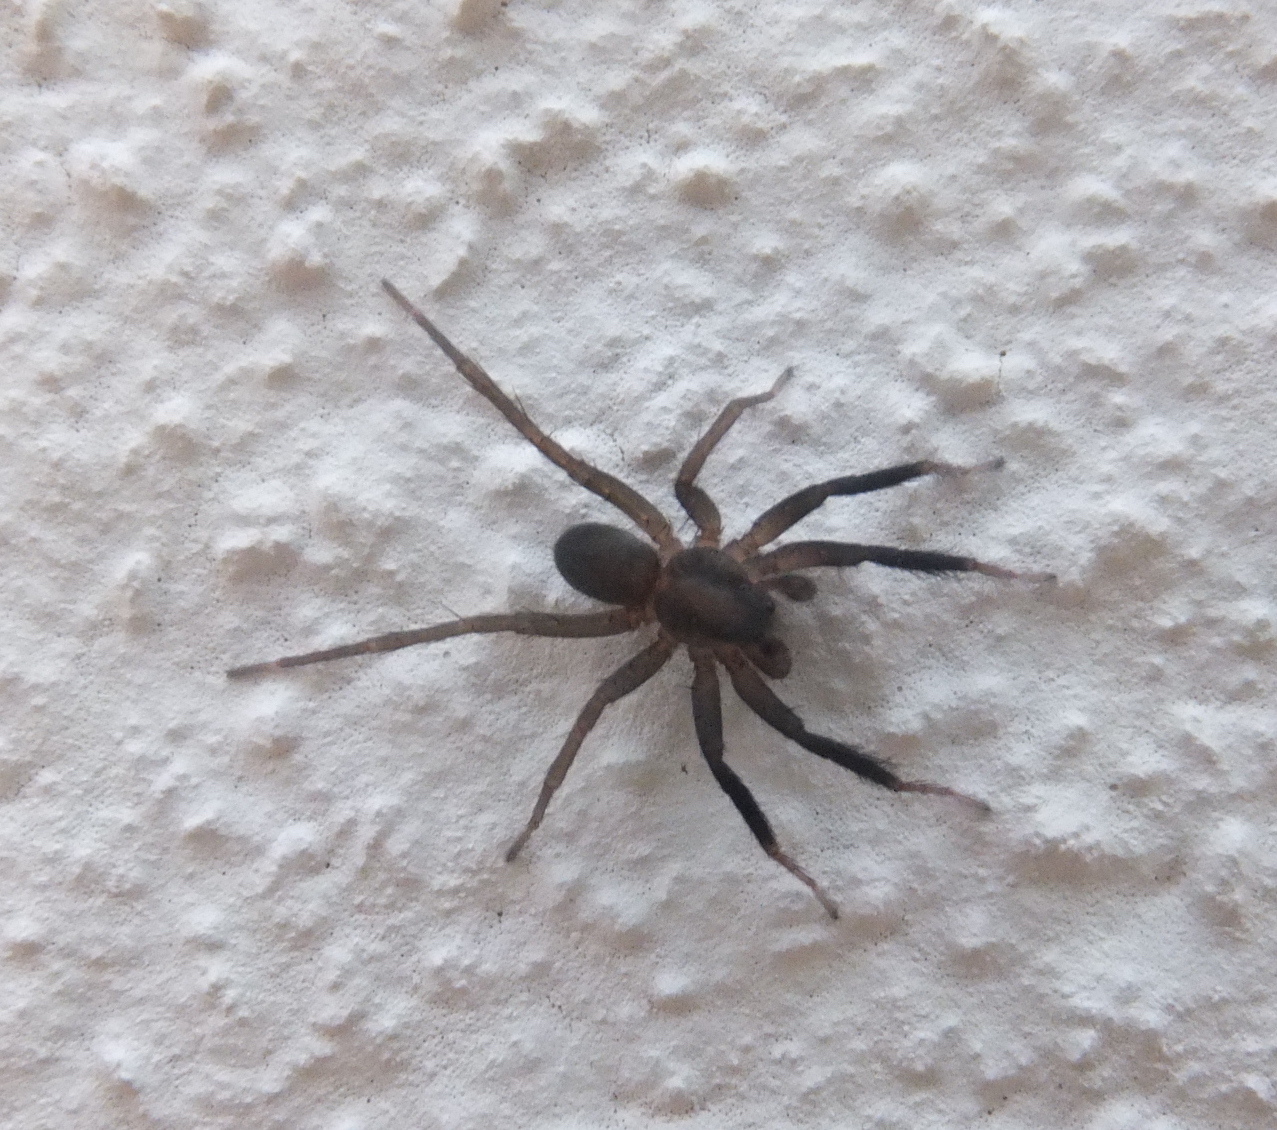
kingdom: Animalia
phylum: Arthropoda
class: Arachnida
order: Araneae
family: Lycosidae
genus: Trabea
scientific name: Trabea paradoxa
